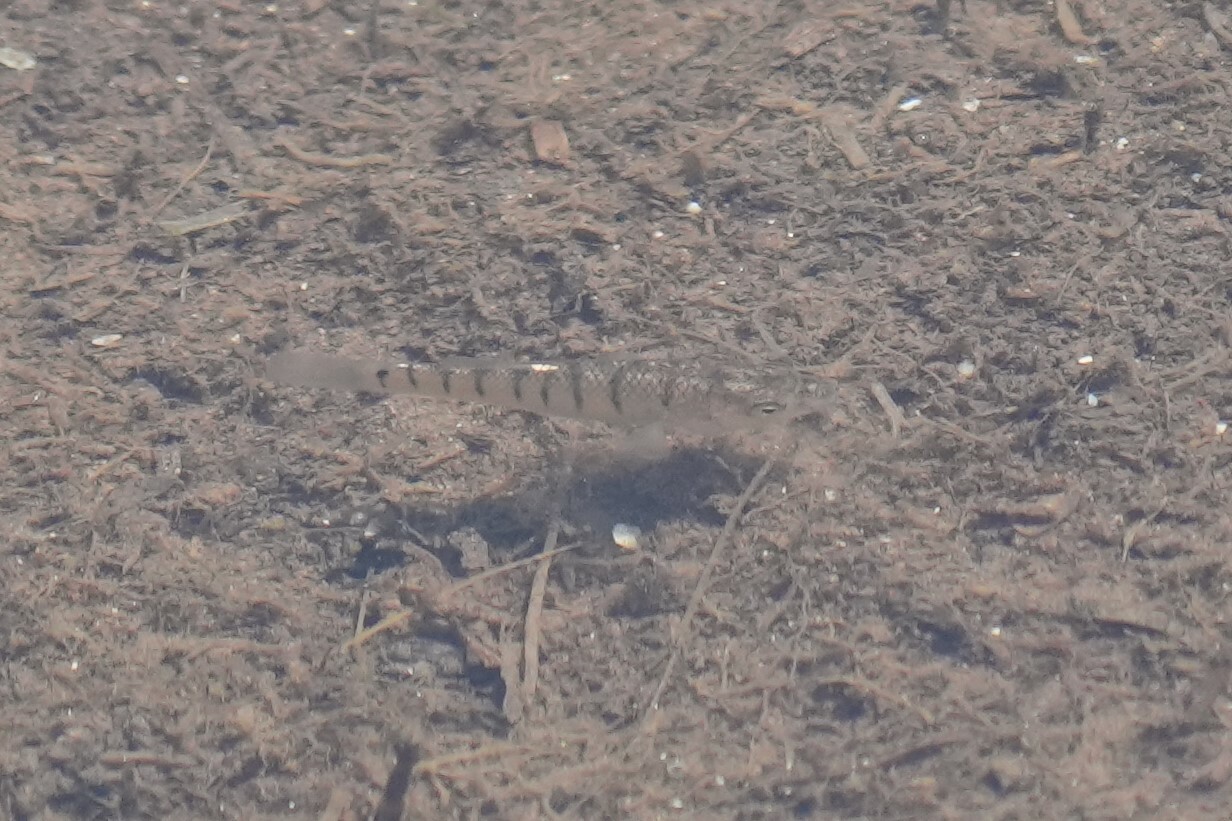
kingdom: Animalia
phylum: Chordata
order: Cyprinodontiformes
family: Fundulidae
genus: Fundulus
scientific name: Fundulus majalis
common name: Striped killifish
